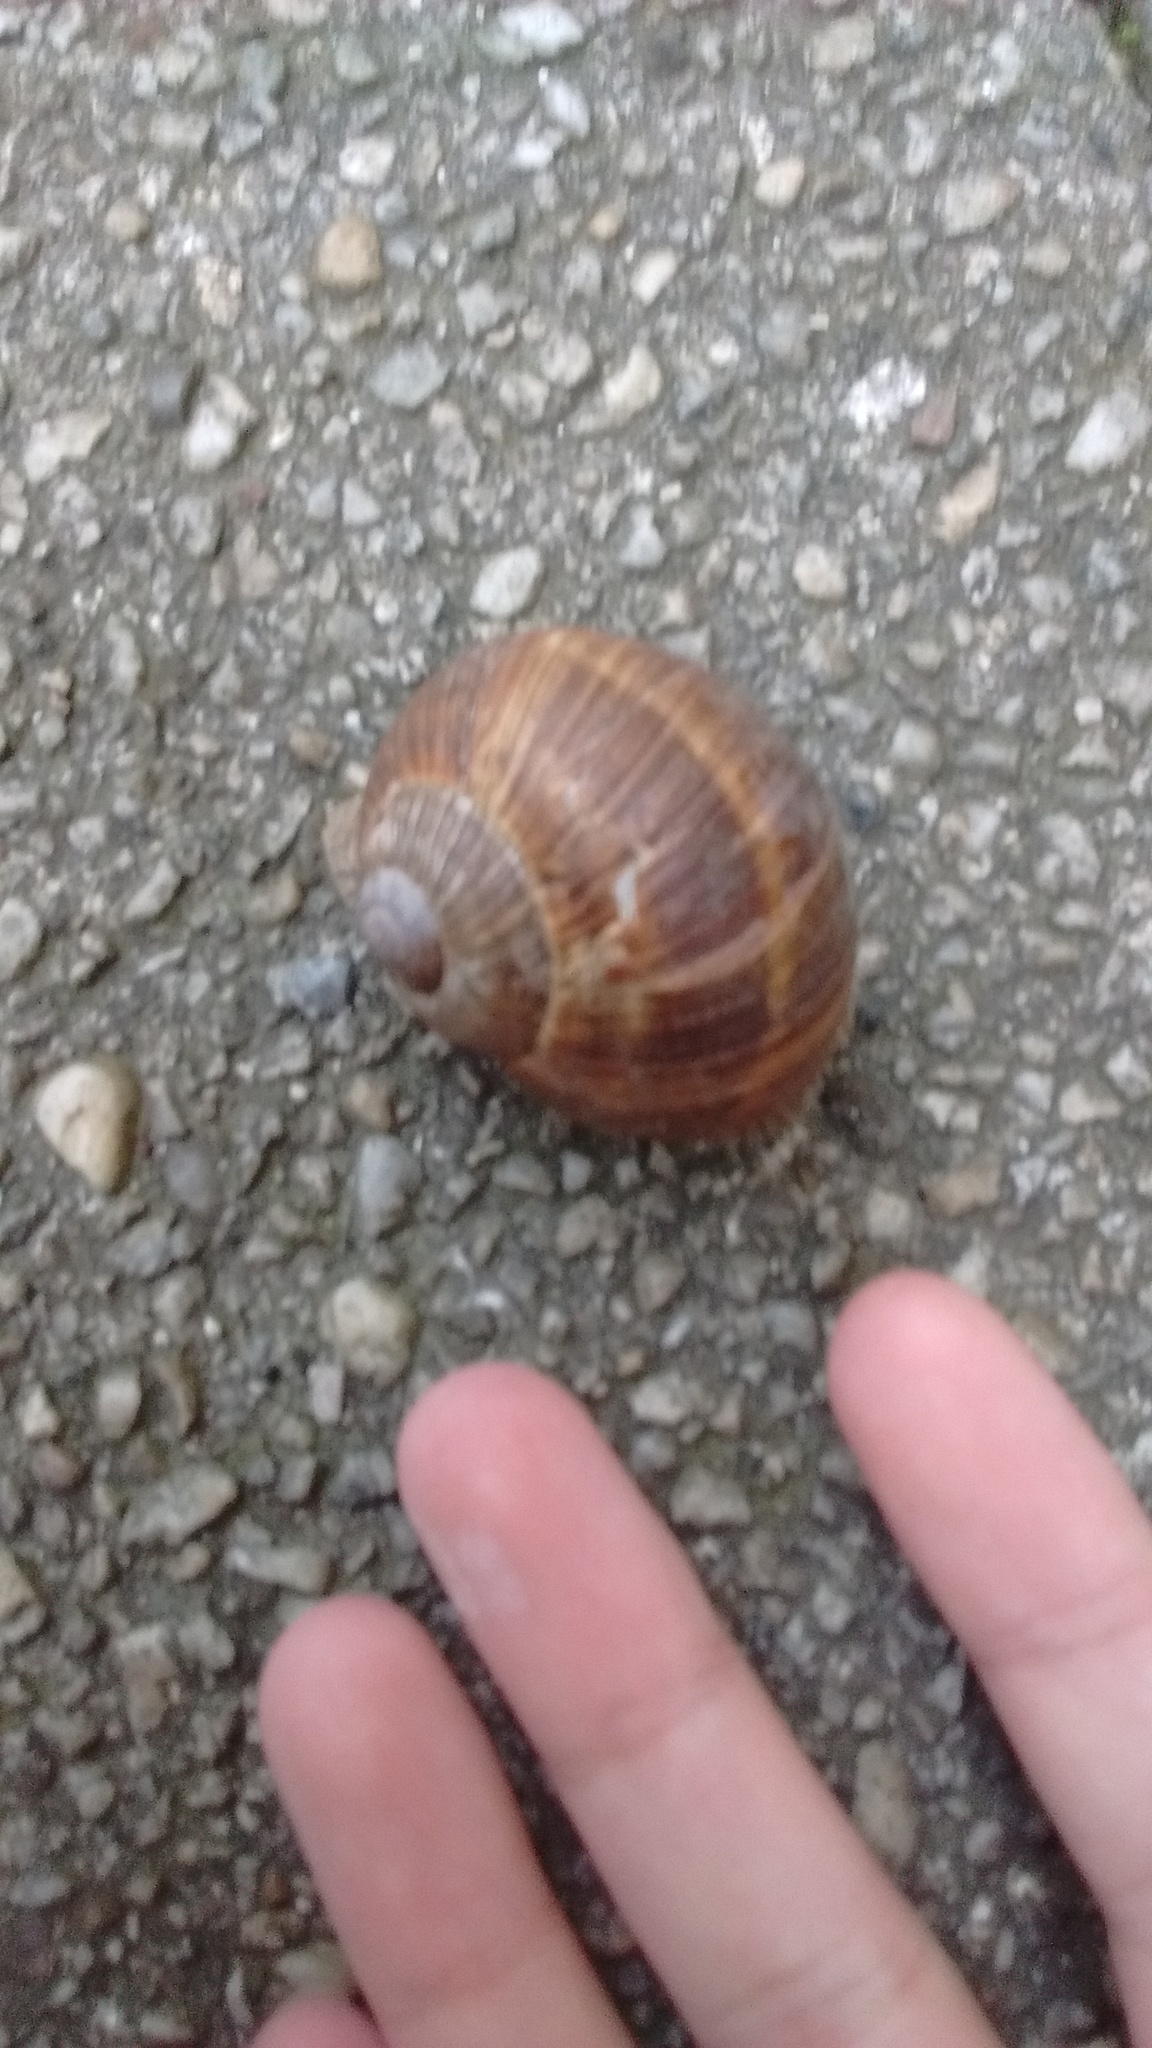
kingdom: Animalia
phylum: Mollusca
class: Gastropoda
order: Stylommatophora
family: Helicidae
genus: Helix
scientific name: Helix pomatia
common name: Roman snail
